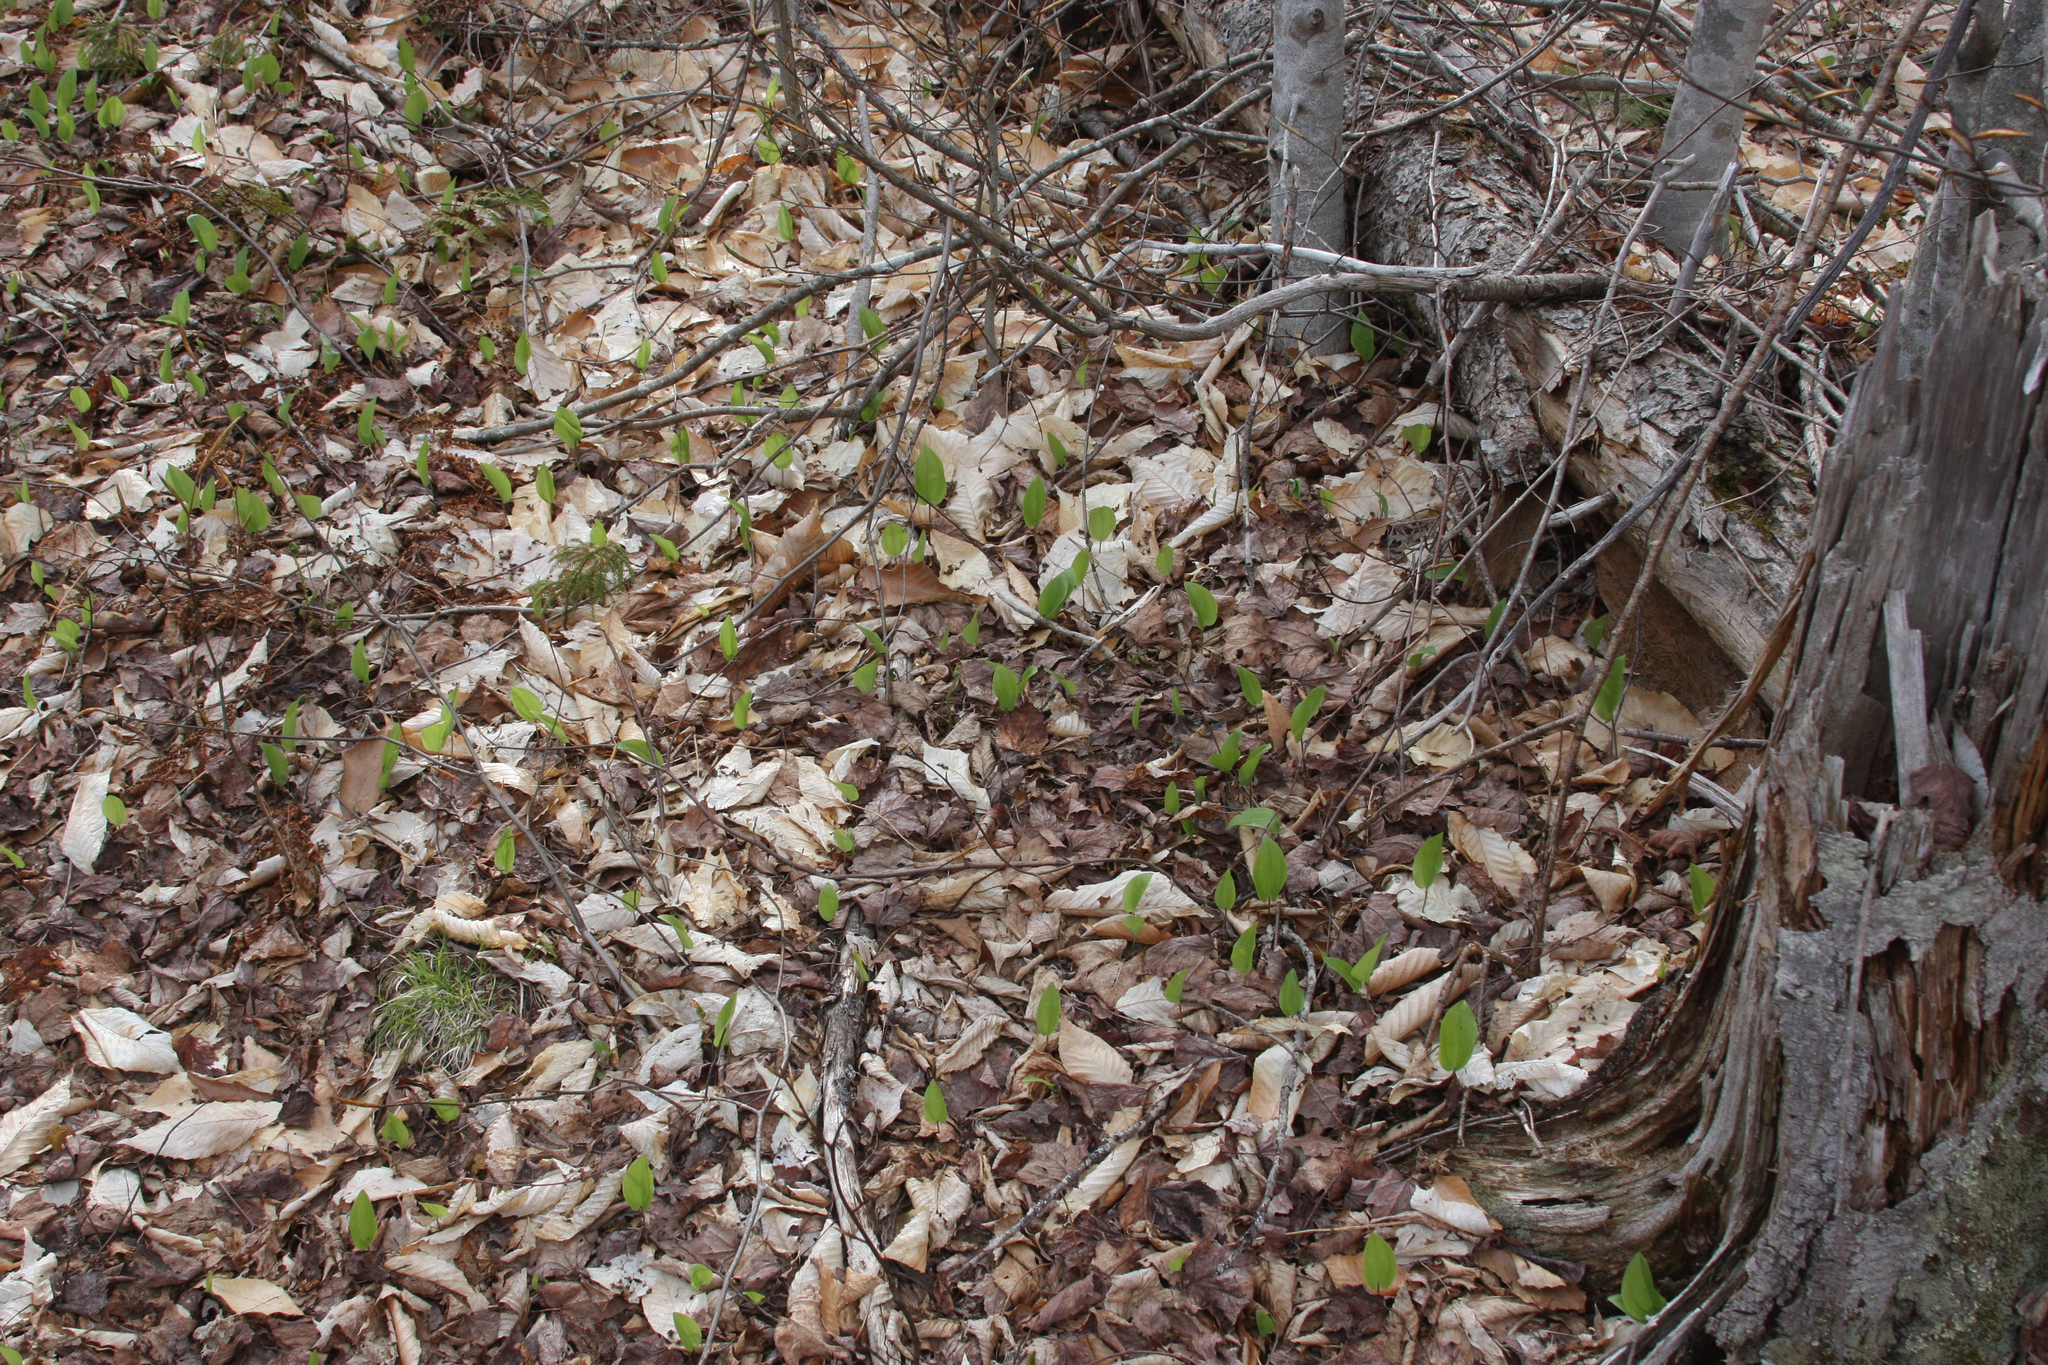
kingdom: Plantae
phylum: Tracheophyta
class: Liliopsida
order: Asparagales
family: Asparagaceae
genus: Maianthemum
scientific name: Maianthemum canadense
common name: False lily-of-the-valley
